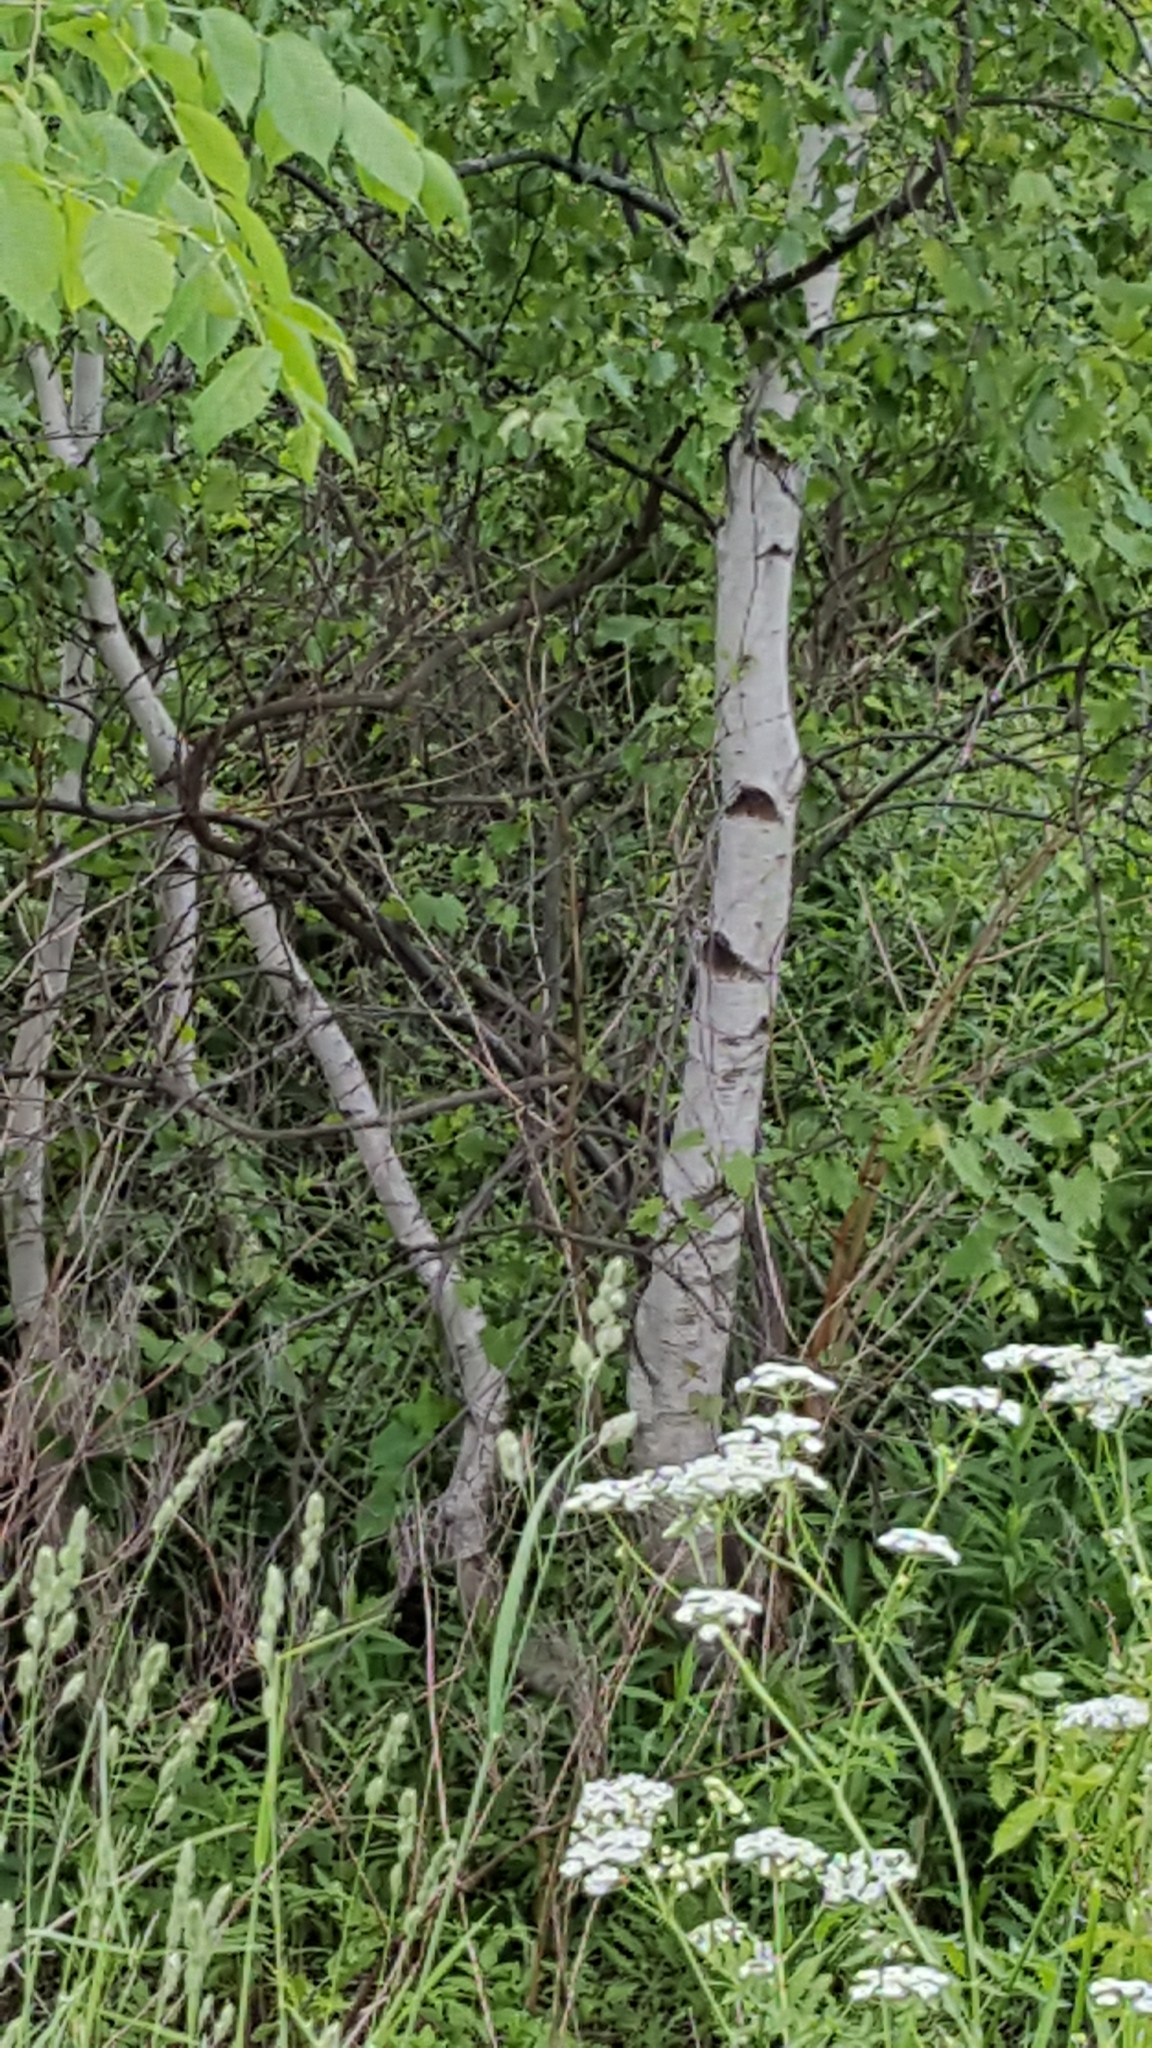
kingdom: Plantae
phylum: Tracheophyta
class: Magnoliopsida
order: Fagales
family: Betulaceae
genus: Betula
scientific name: Betula populifolia
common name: Fire birch
